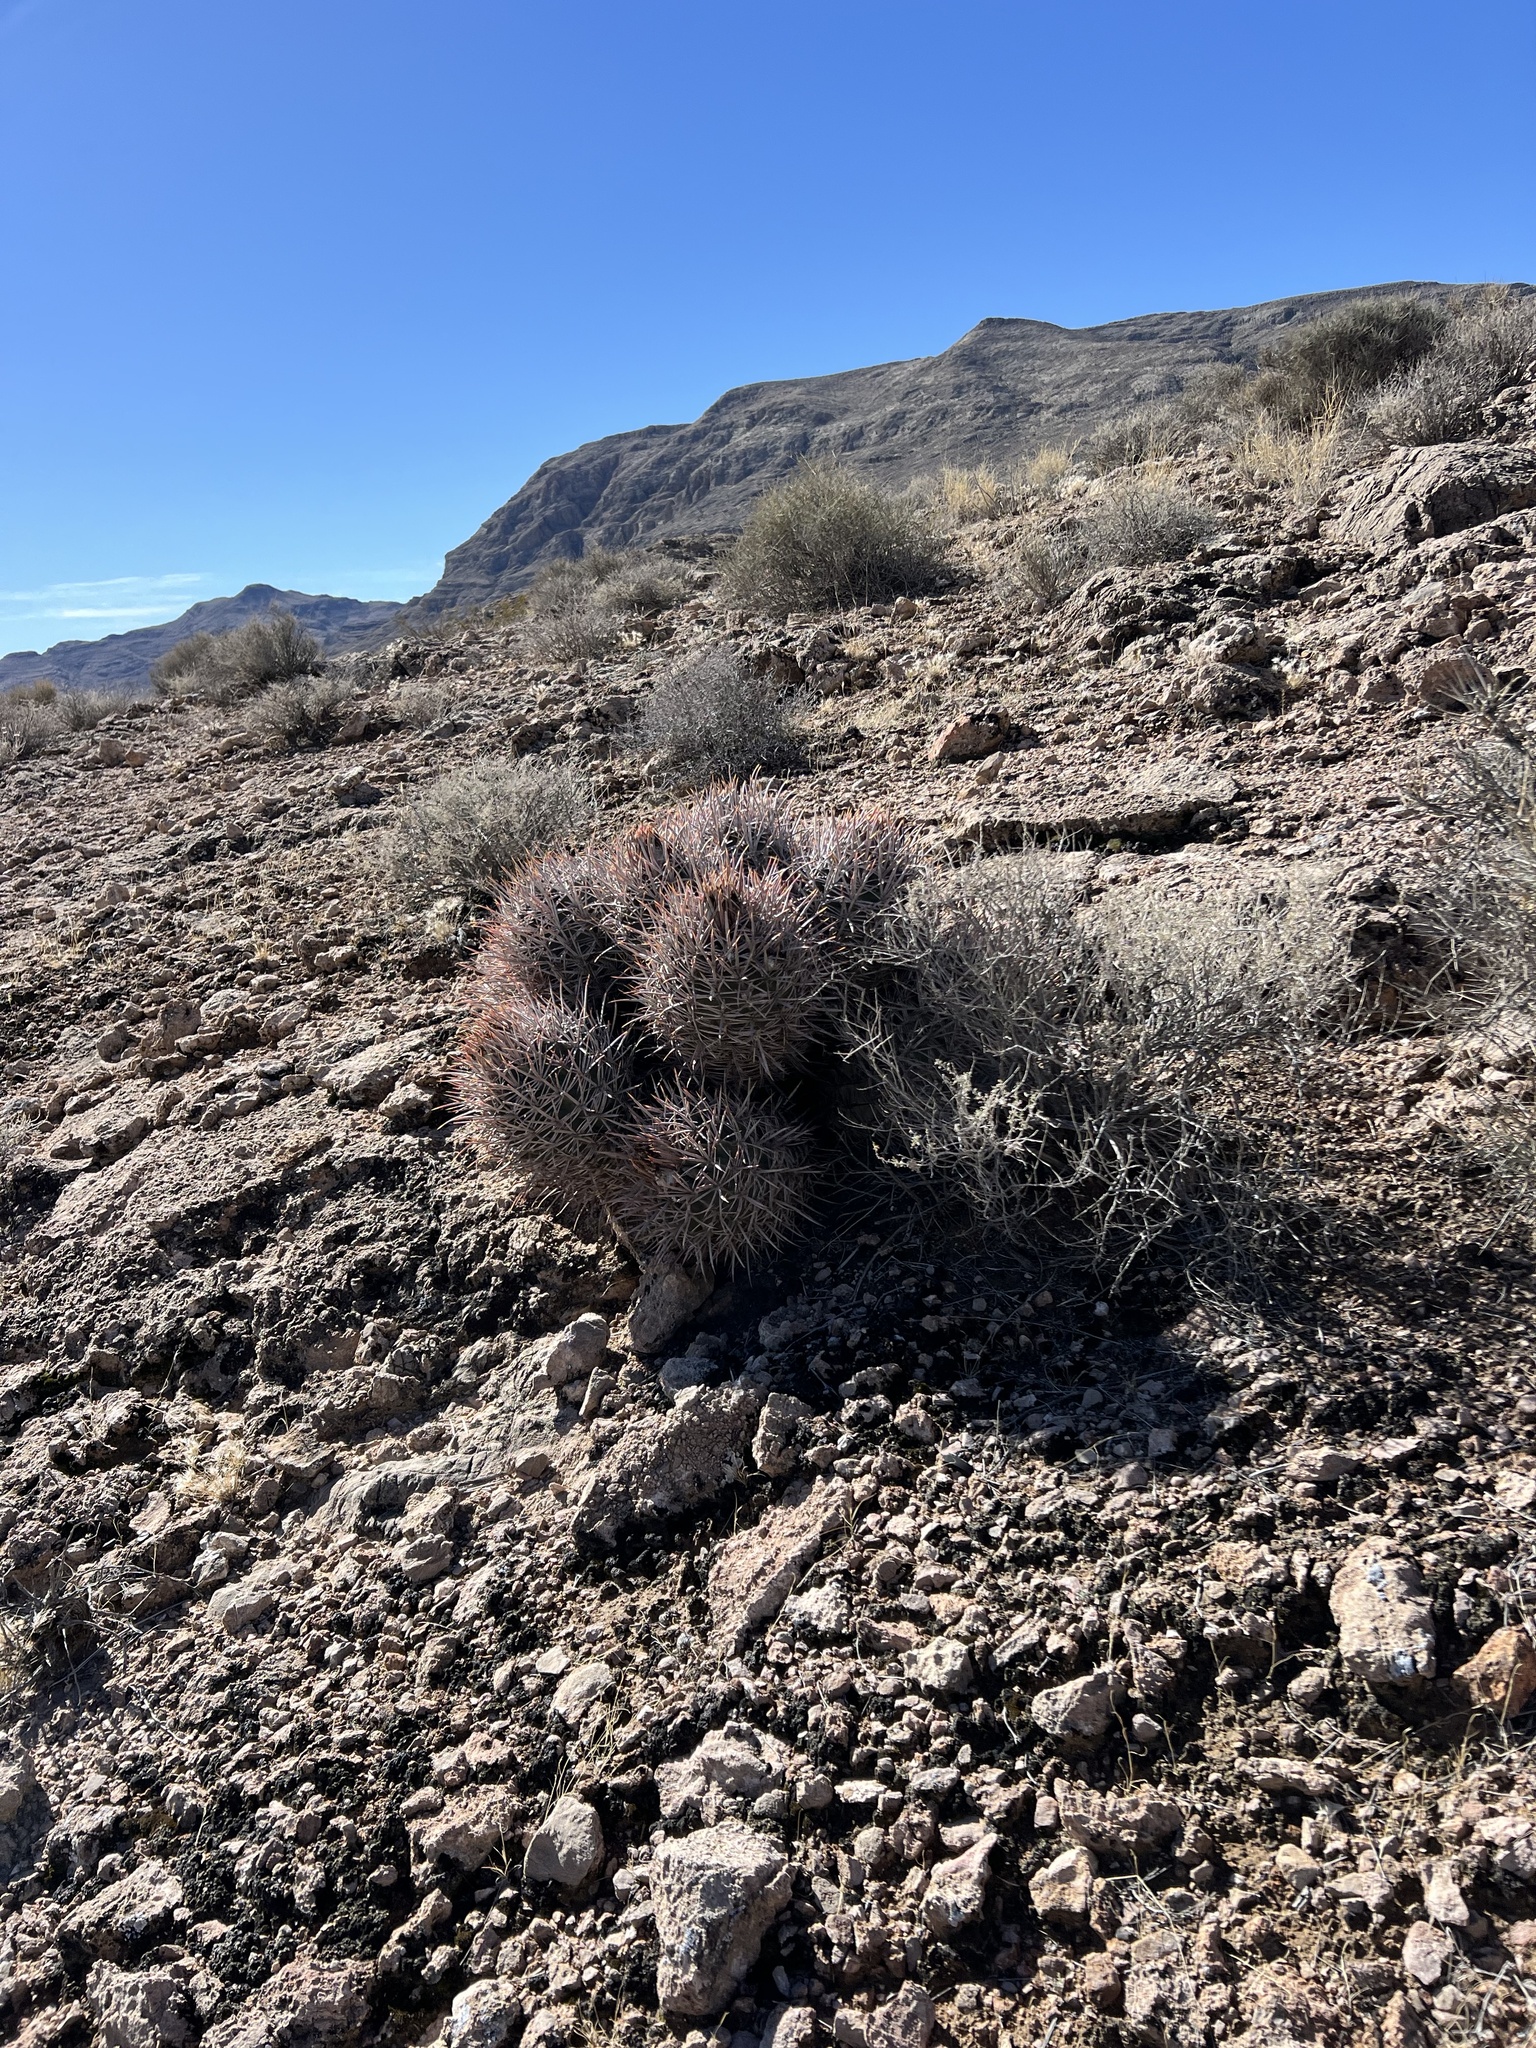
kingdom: Plantae
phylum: Tracheophyta
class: Magnoliopsida
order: Caryophyllales
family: Cactaceae
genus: Echinocactus
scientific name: Echinocactus polycephalus
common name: Cottontop cactus
